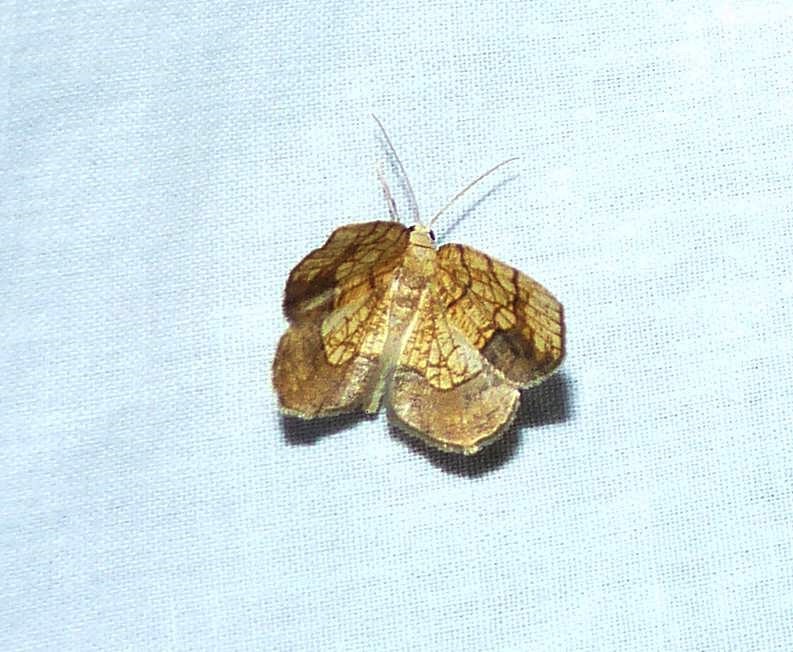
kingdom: Animalia
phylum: Arthropoda
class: Insecta
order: Lepidoptera
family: Geometridae
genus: Nematocampa
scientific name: Nematocampa resistaria
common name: Horned spanworm moth
